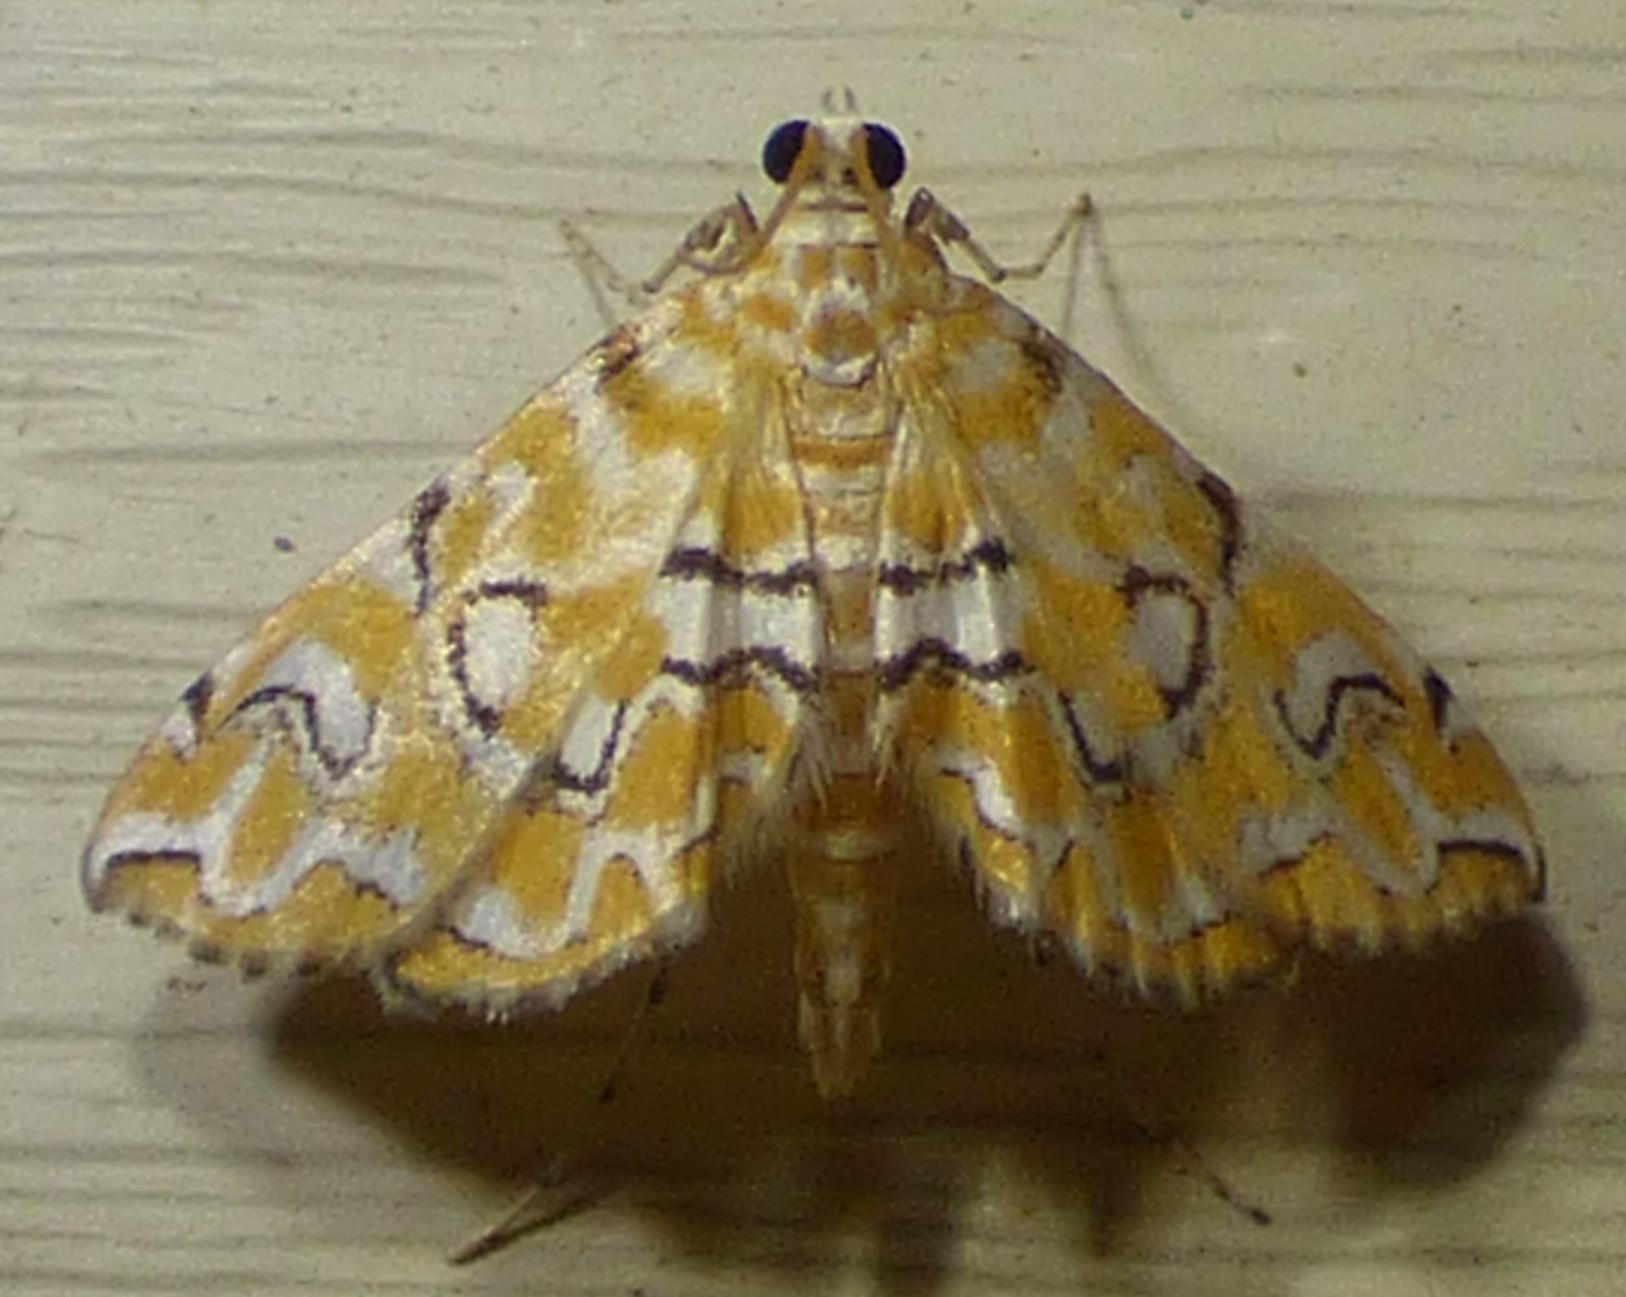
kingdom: Animalia
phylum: Arthropoda
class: Insecta
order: Lepidoptera
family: Crambidae
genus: Elophila
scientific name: Elophila icciusalis
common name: Pondside pyralid moth
